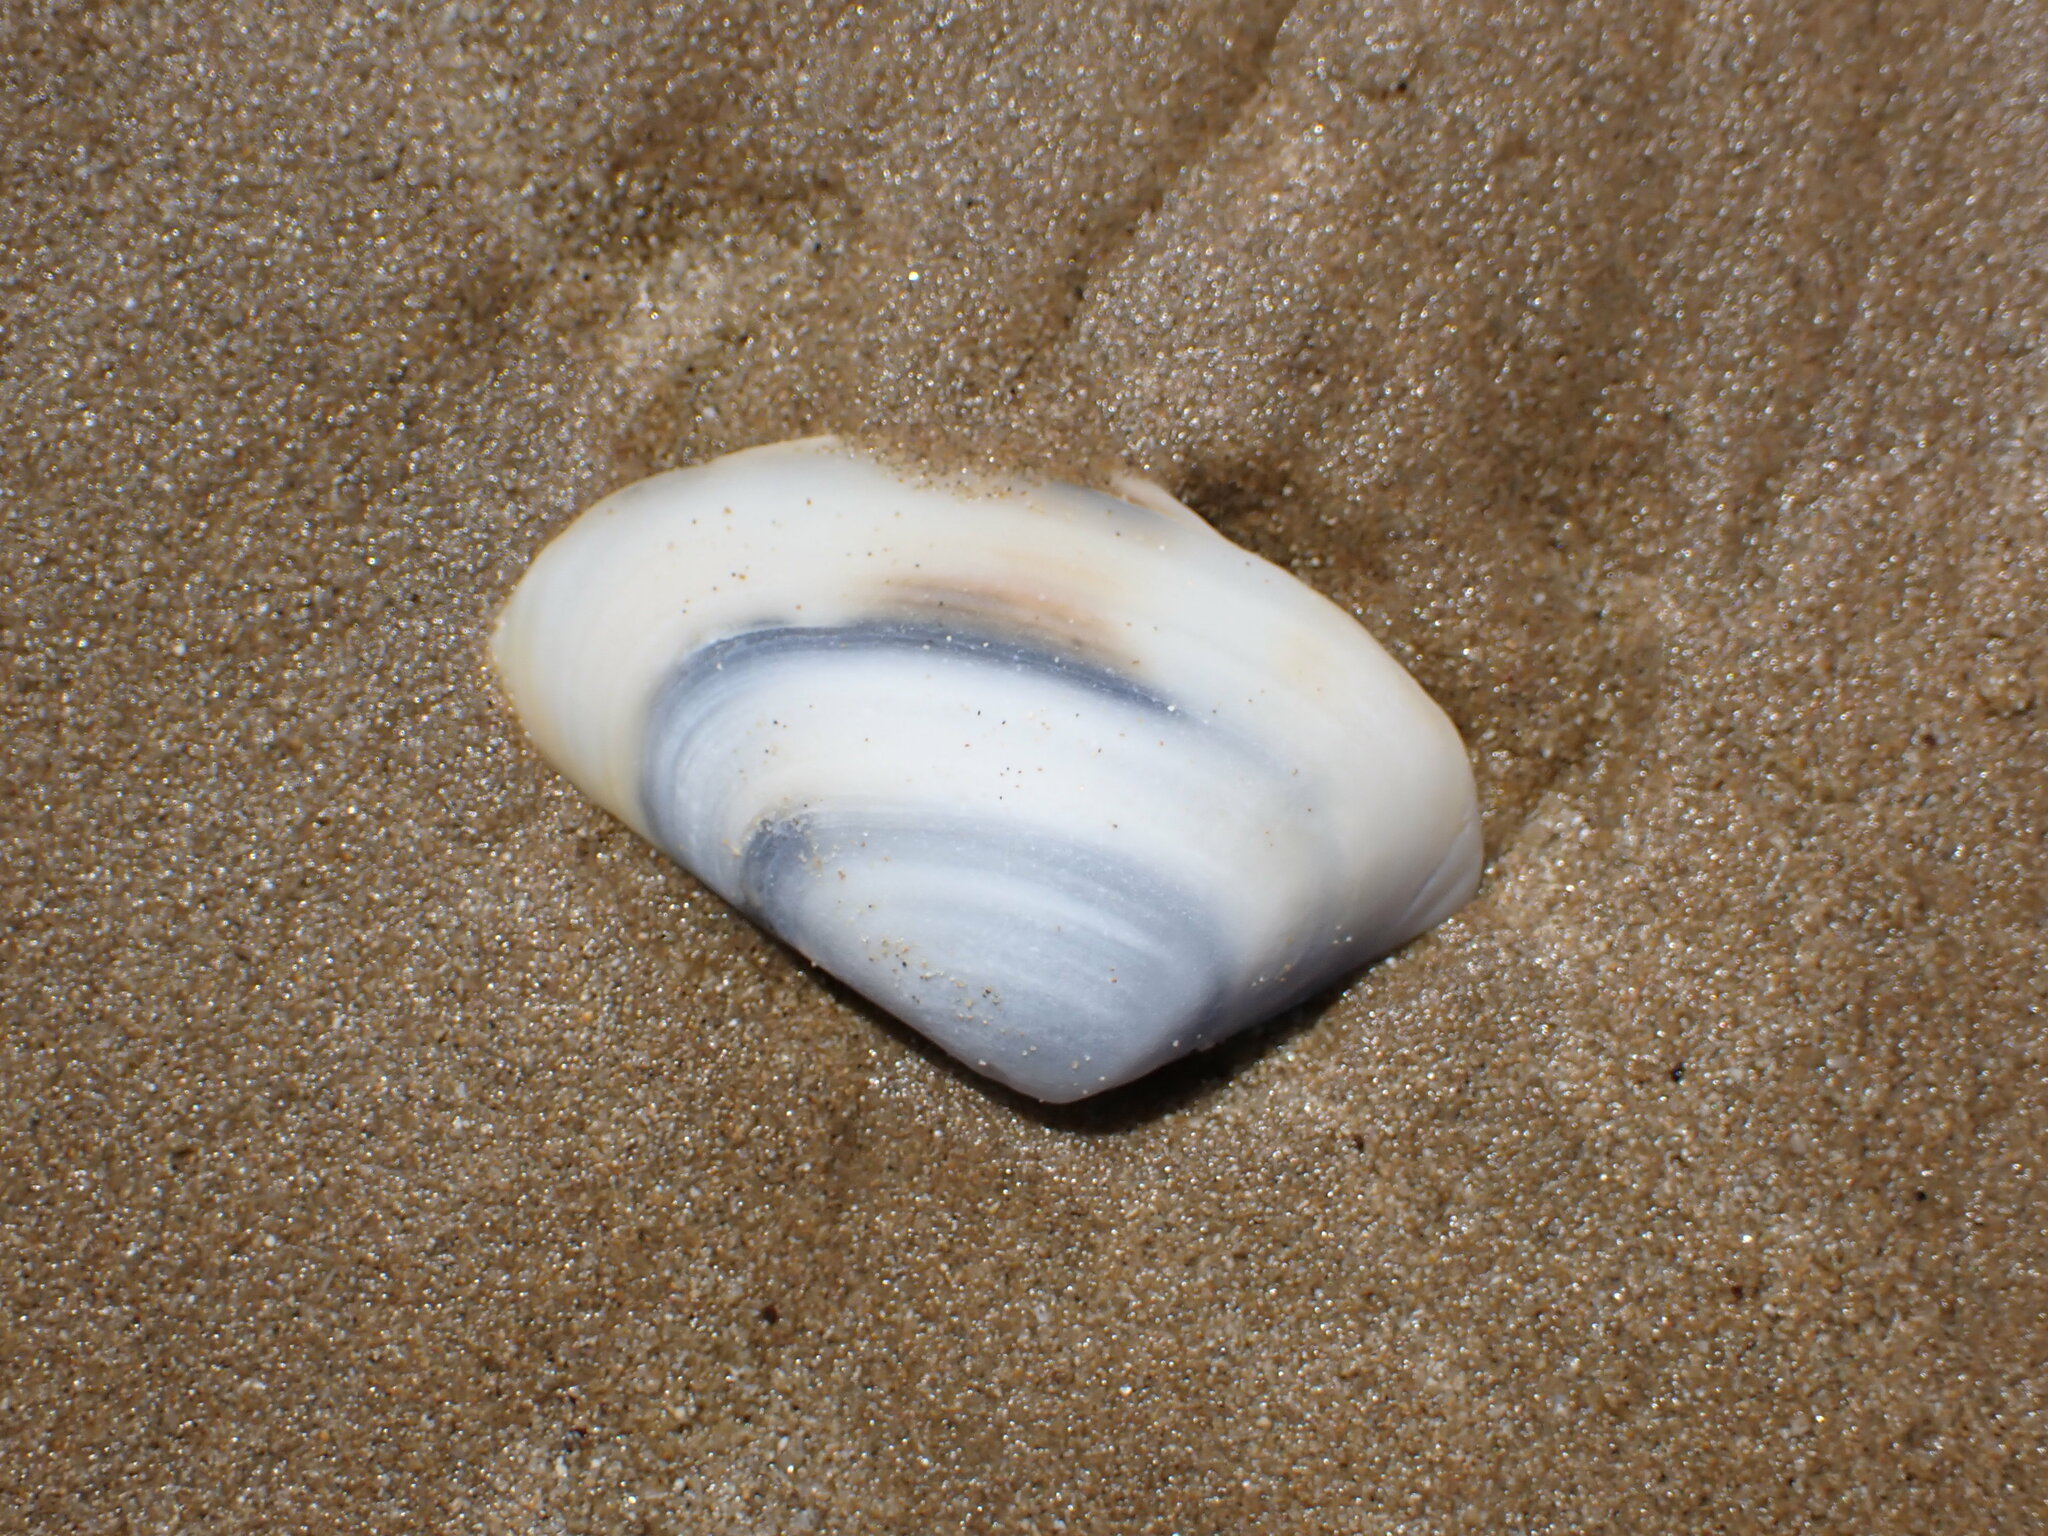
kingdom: Animalia
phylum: Mollusca
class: Bivalvia
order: Venerida
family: Mesodesmatidae
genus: Paphies
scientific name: Paphies subtriangulata
